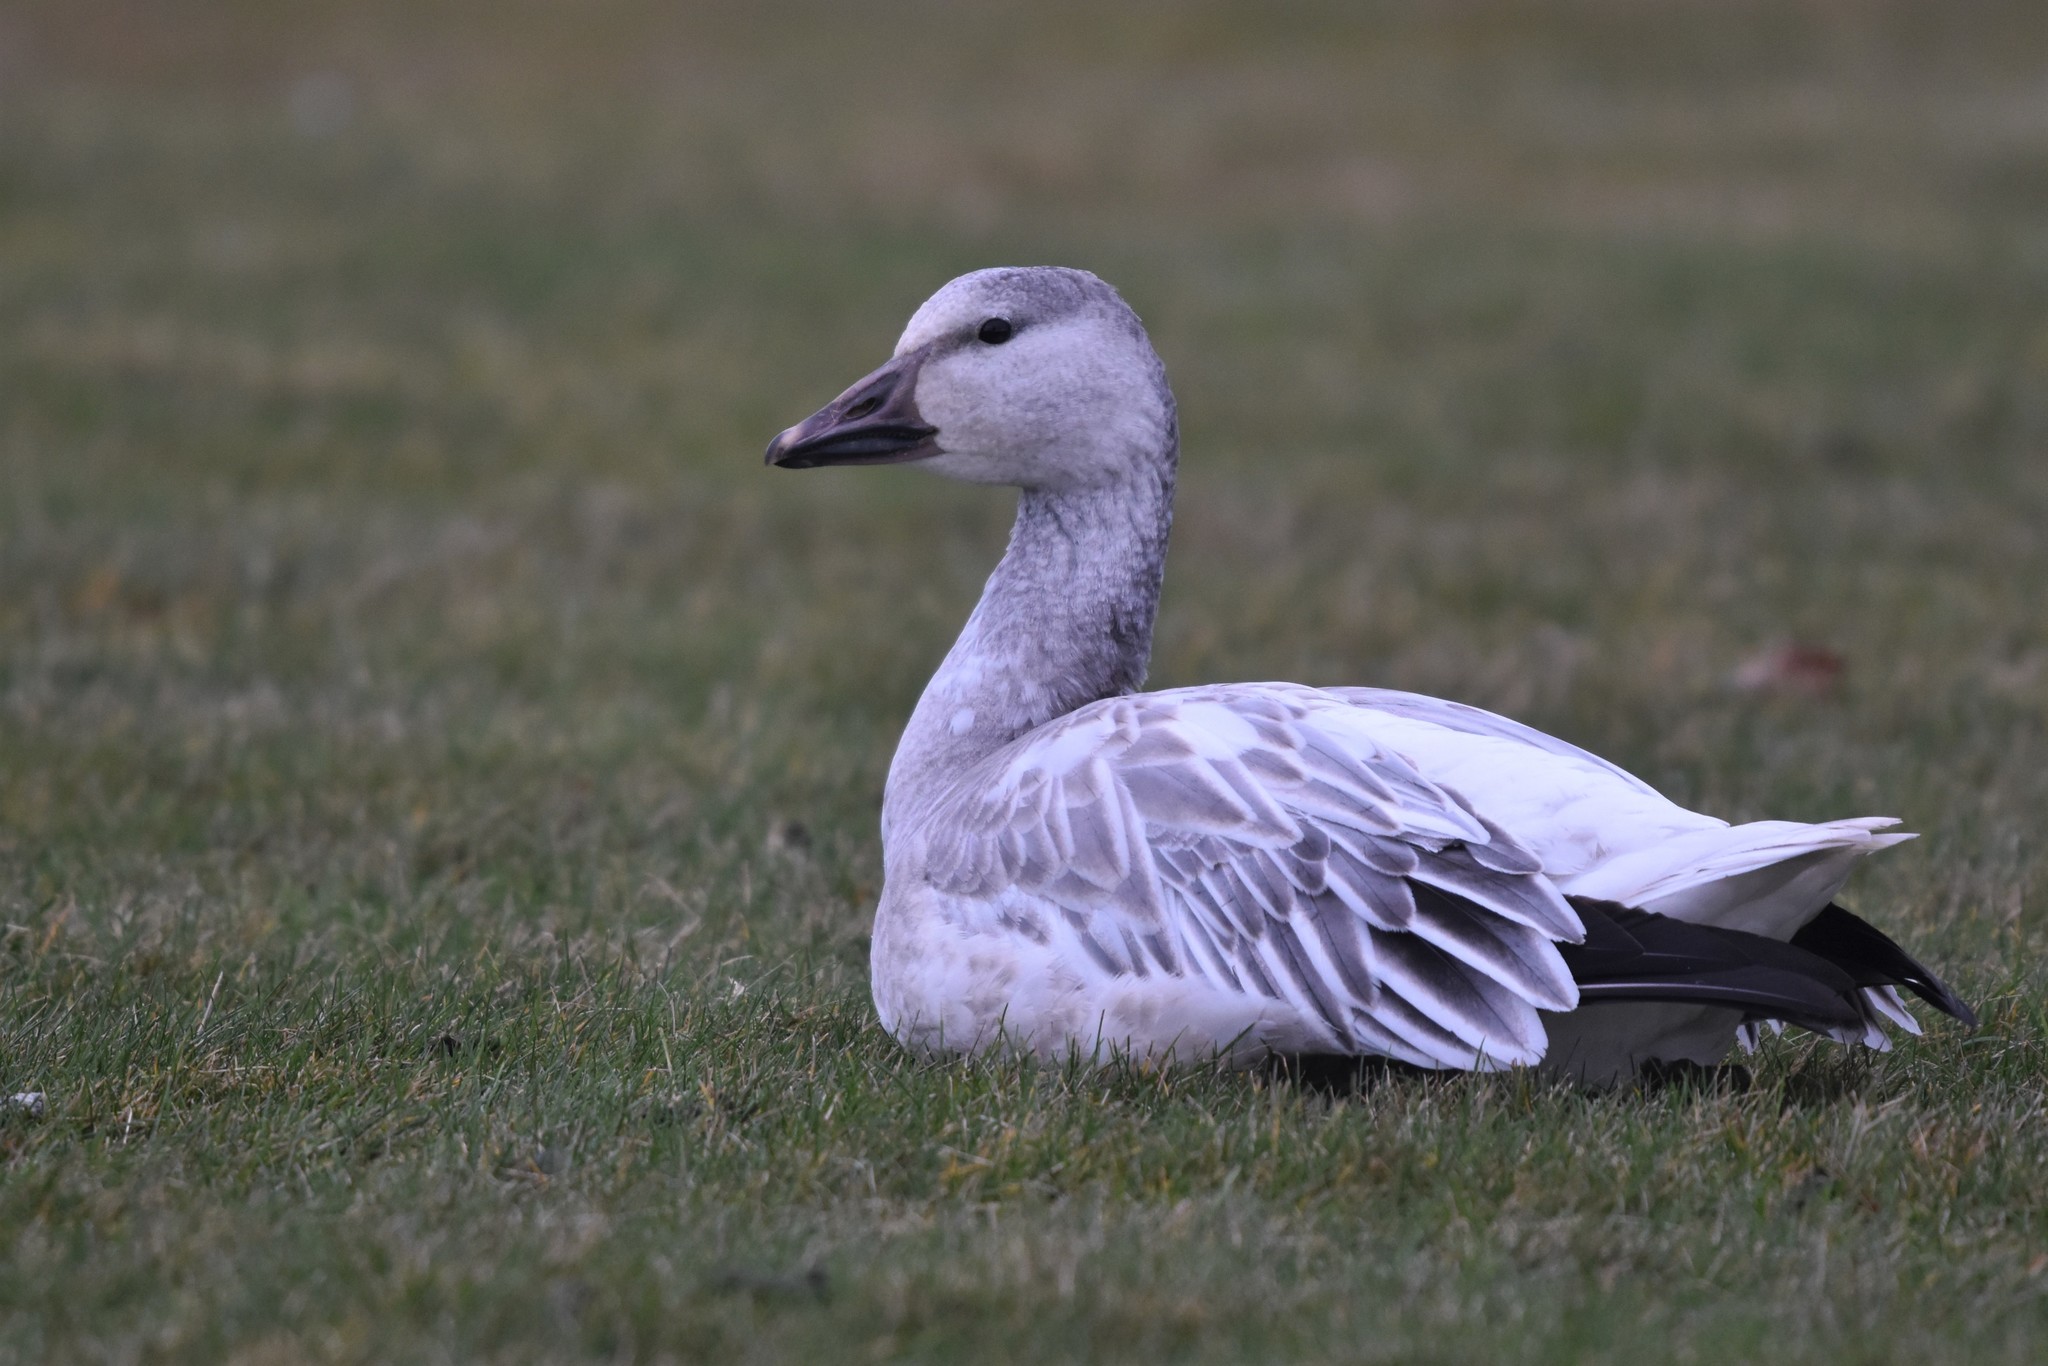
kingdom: Animalia
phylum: Chordata
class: Aves
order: Anseriformes
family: Anatidae
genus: Anser
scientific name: Anser caerulescens
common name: Snow goose
